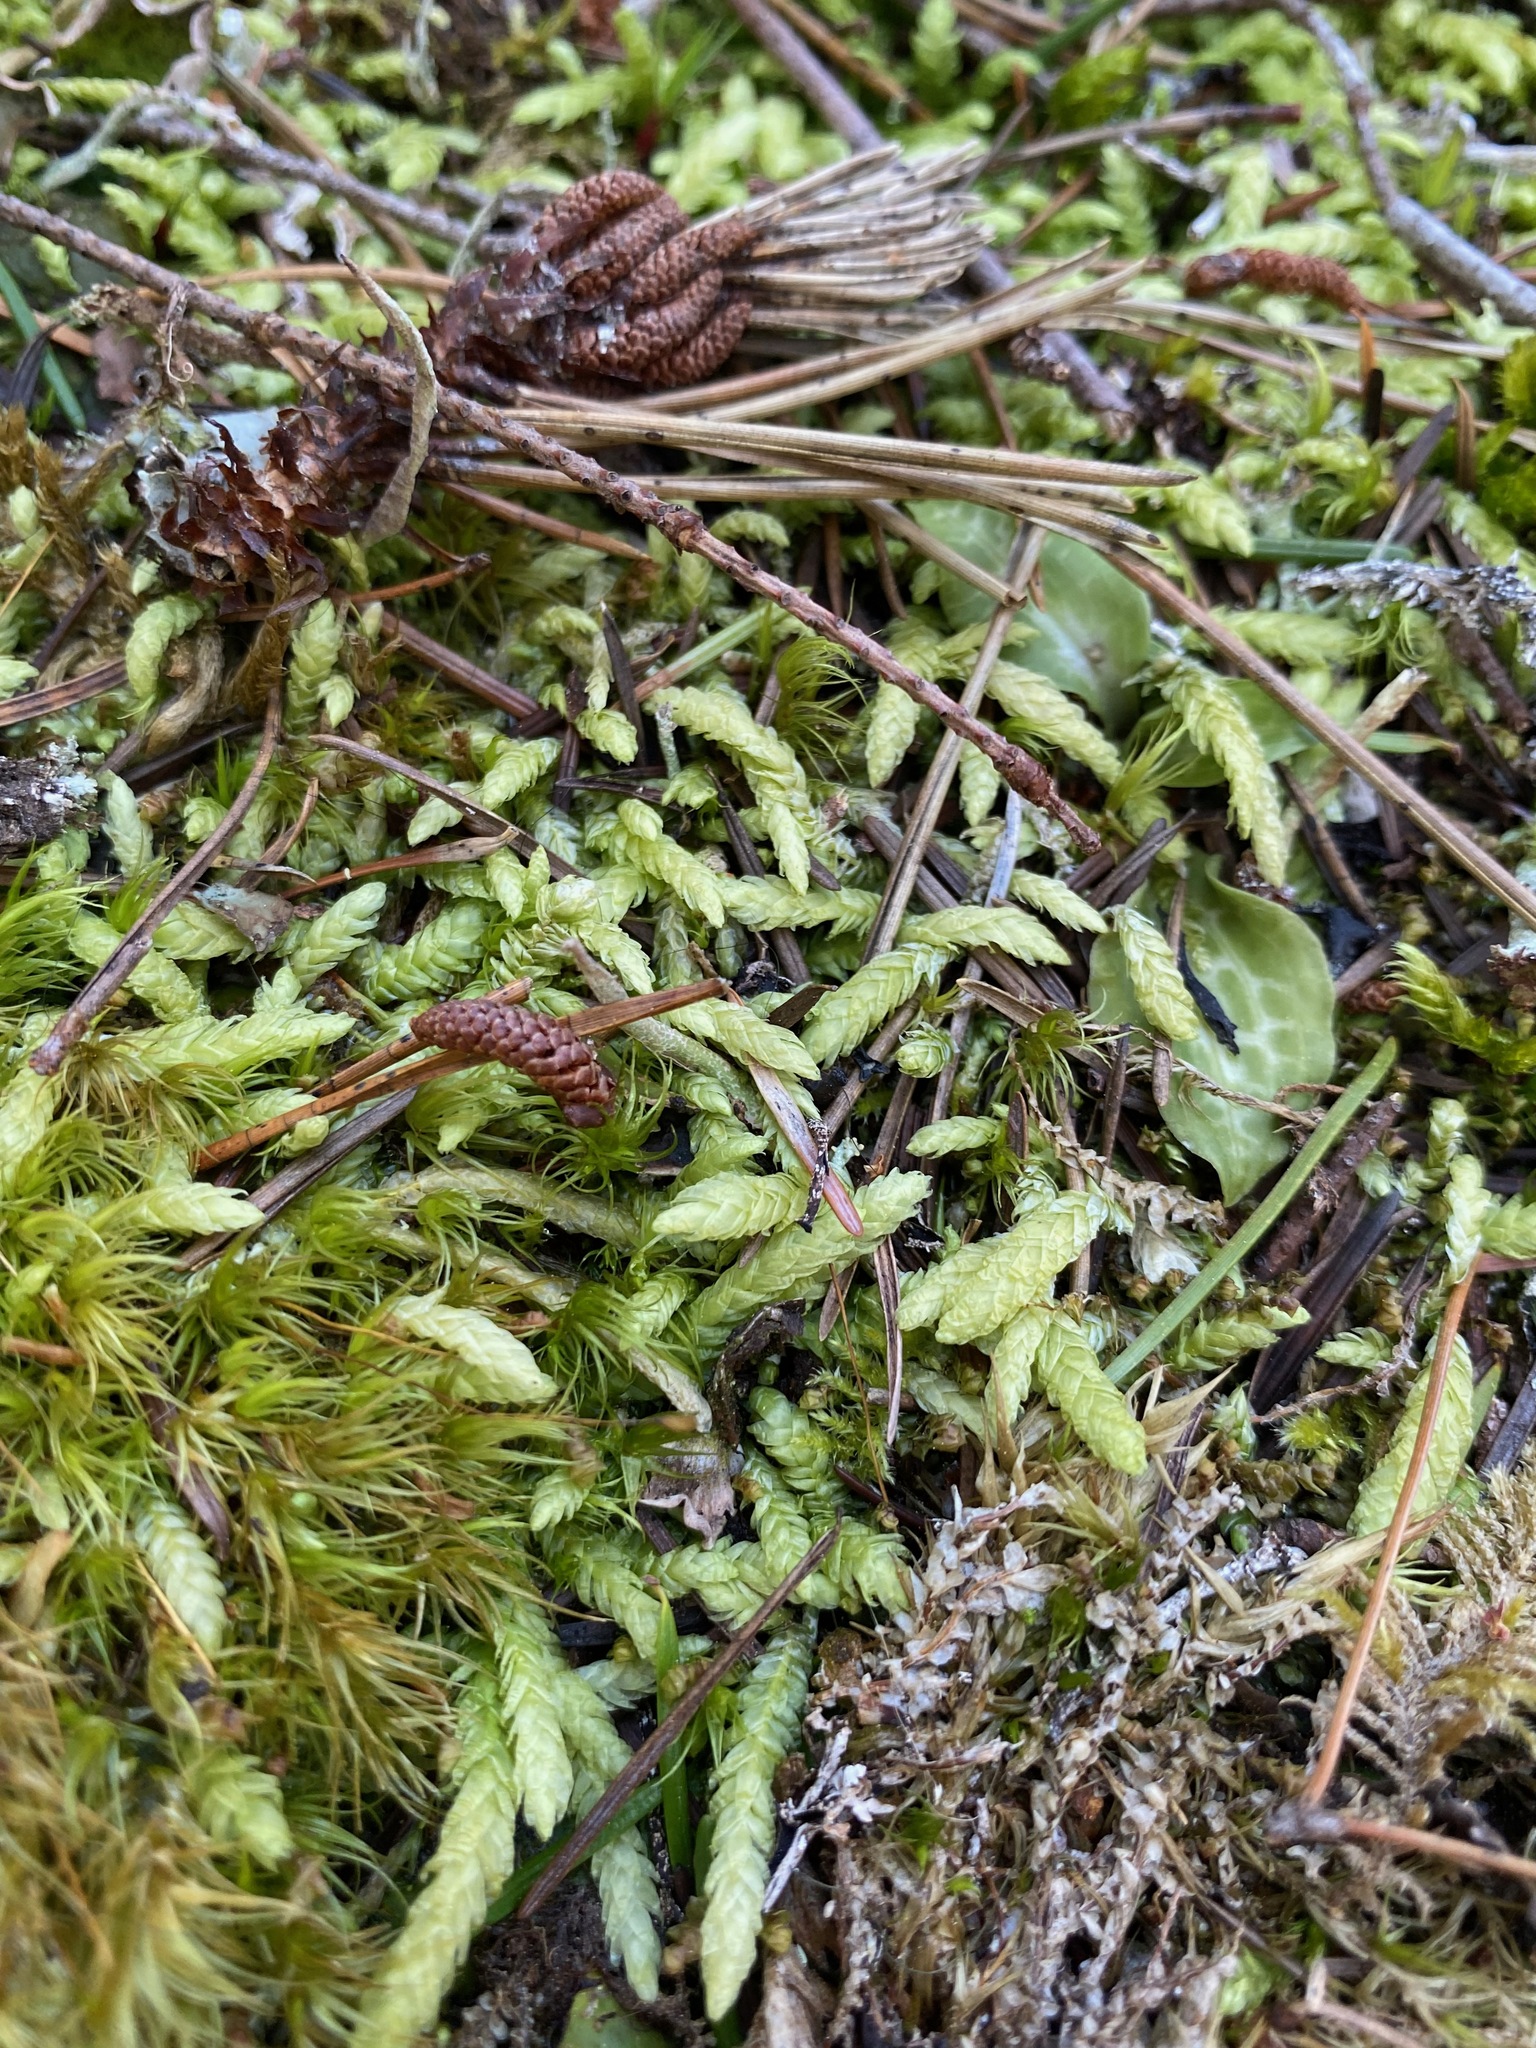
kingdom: Plantae
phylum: Bryophyta
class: Bryopsida
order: Hypnales
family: Plagiotheciaceae
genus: Plagiothecium
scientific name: Plagiothecium undulatum
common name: Waved silk-moss
